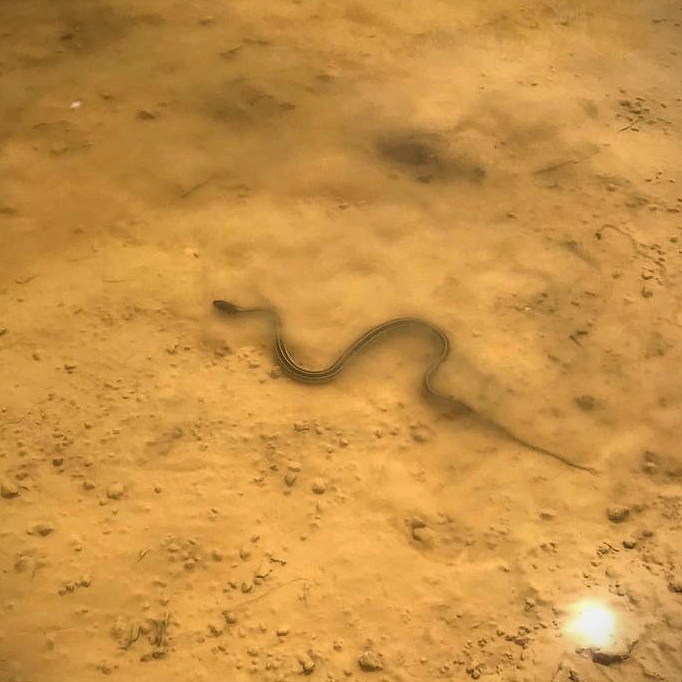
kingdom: Animalia
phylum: Chordata
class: Squamata
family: Colubridae
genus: Thamnophis
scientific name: Thamnophis eques
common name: Mexican garter snake
